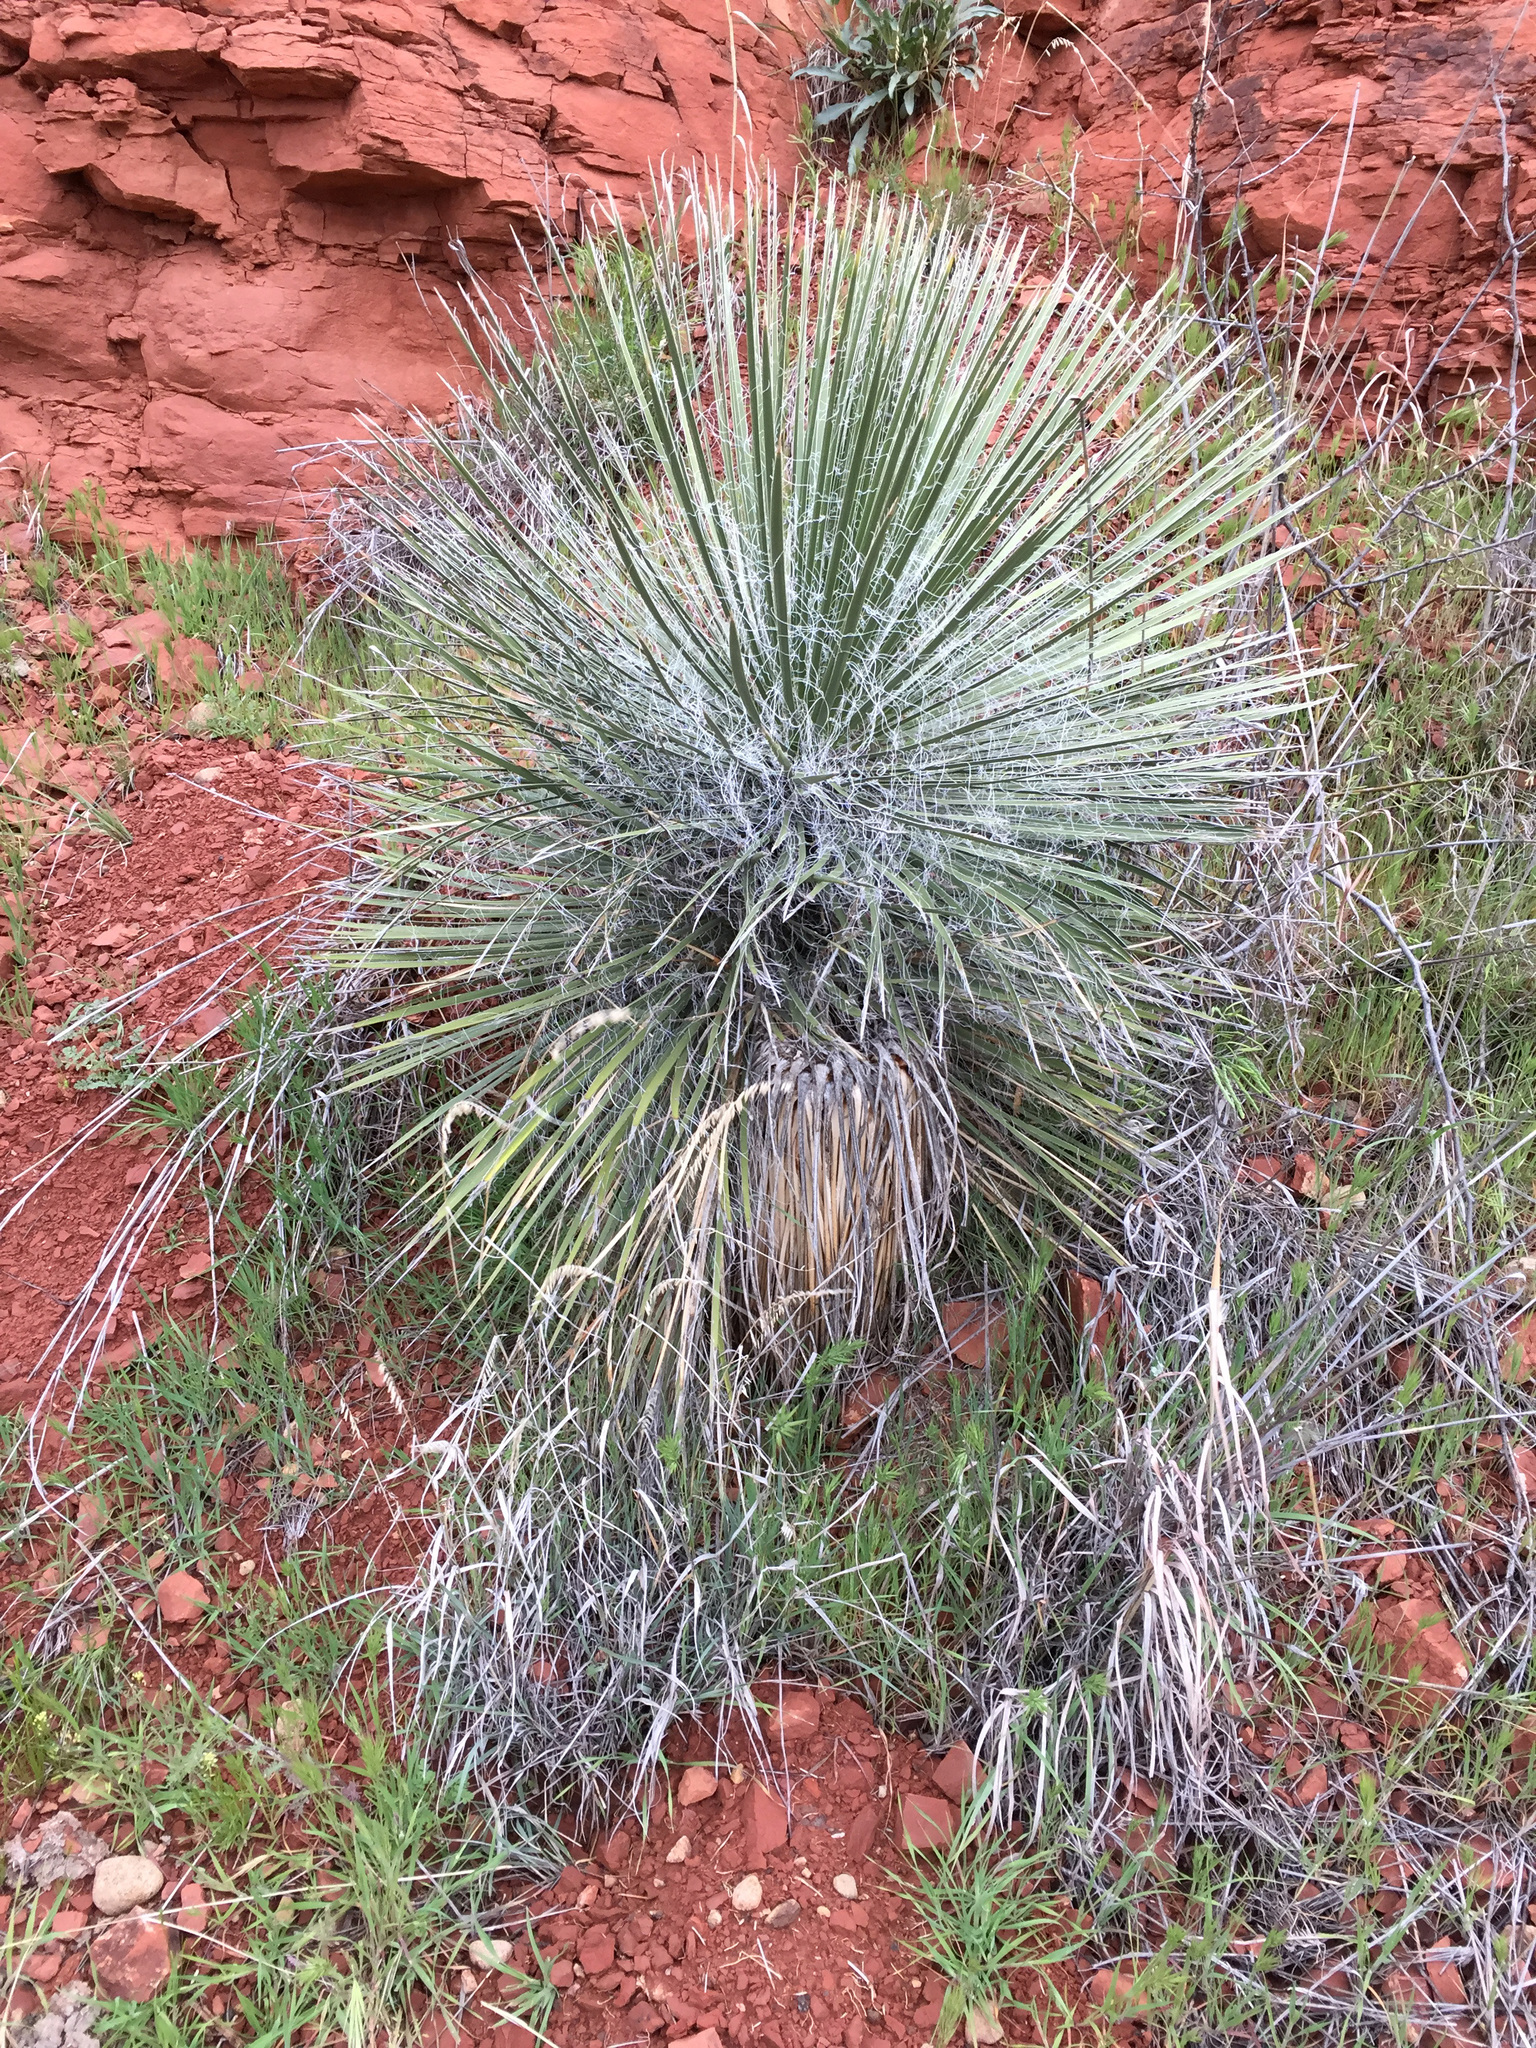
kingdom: Plantae
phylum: Tracheophyta
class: Liliopsida
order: Asparagales
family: Asparagaceae
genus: Yucca
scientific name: Yucca elata
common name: Palmella
